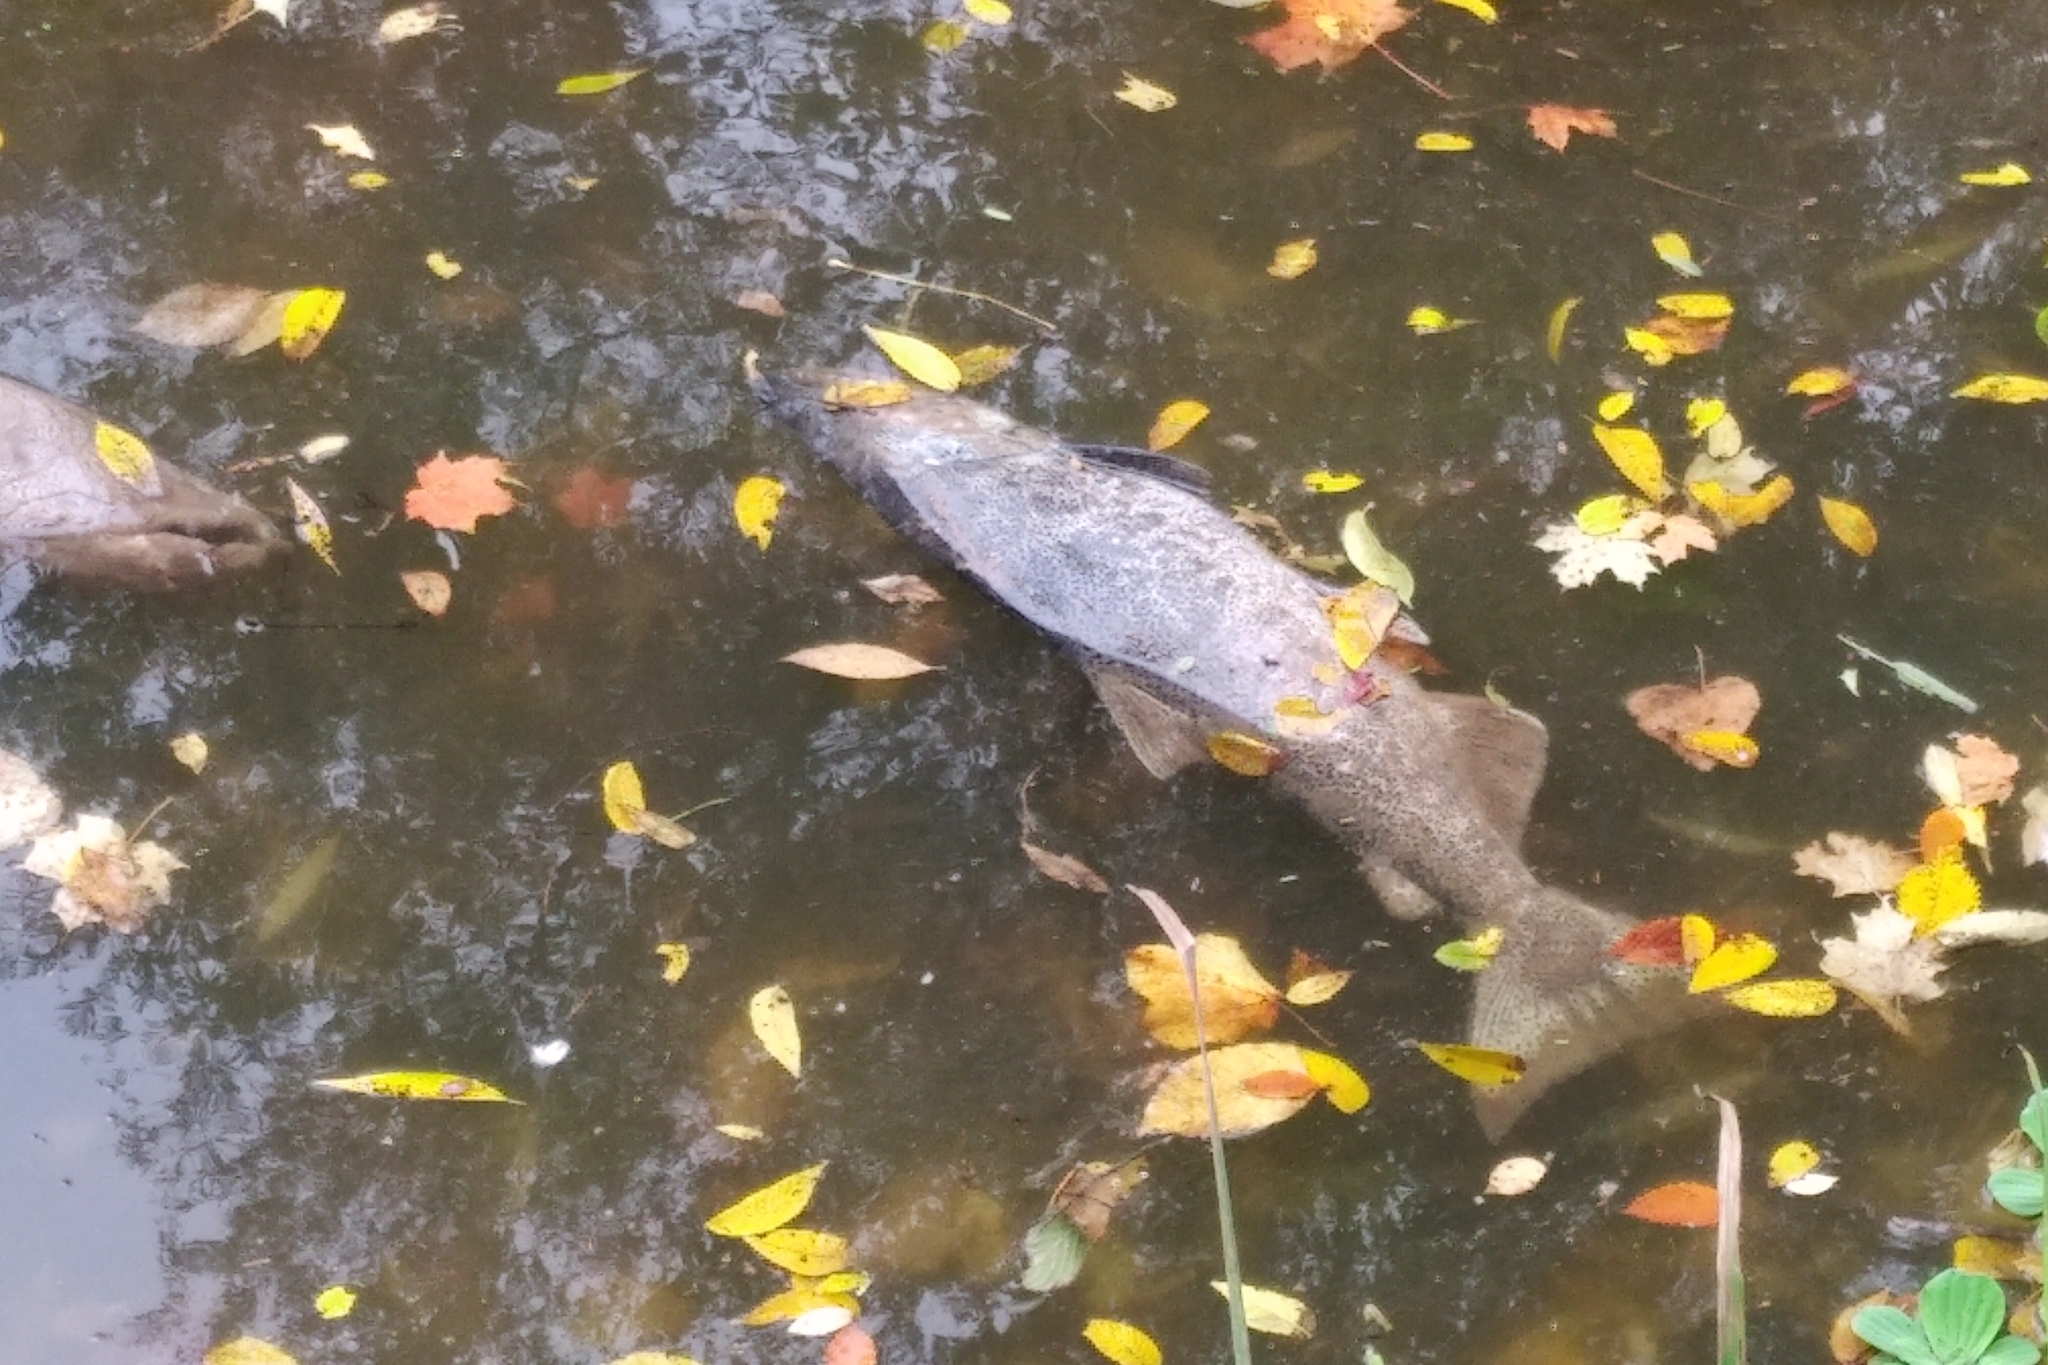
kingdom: Animalia
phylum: Chordata
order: Salmoniformes
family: Salmonidae
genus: Oncorhynchus
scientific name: Oncorhynchus tshawytscha
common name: Chinook salmon
